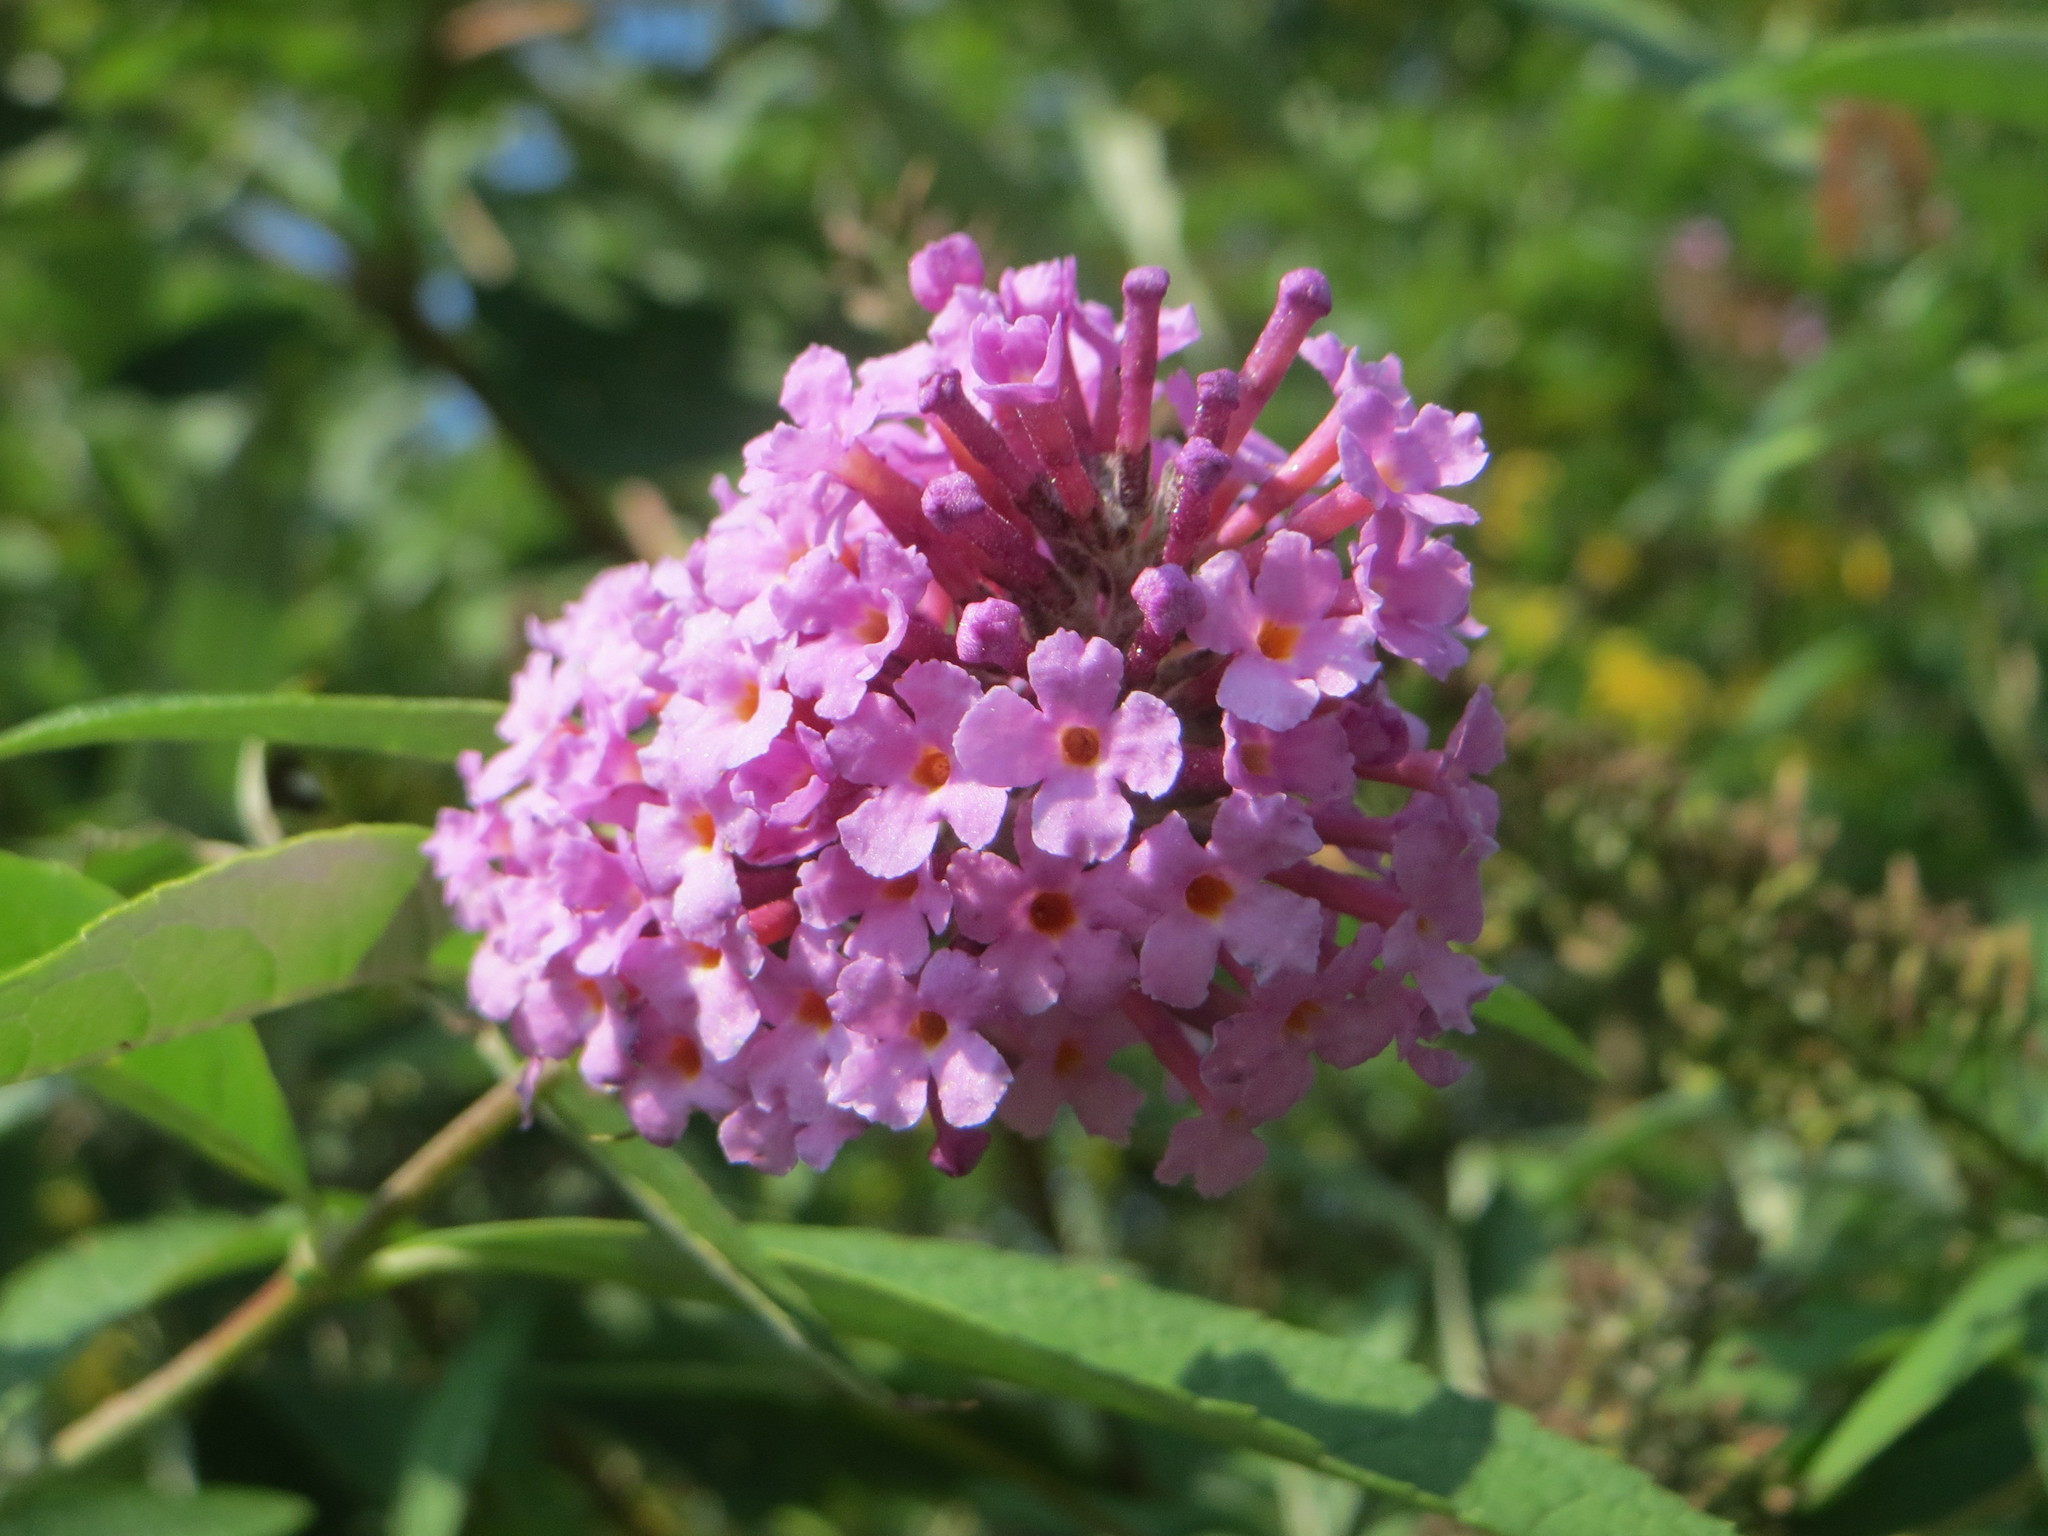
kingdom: Plantae
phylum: Tracheophyta
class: Magnoliopsida
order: Lamiales
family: Scrophulariaceae
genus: Buddleja
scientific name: Buddleja davidii
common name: Butterfly-bush
